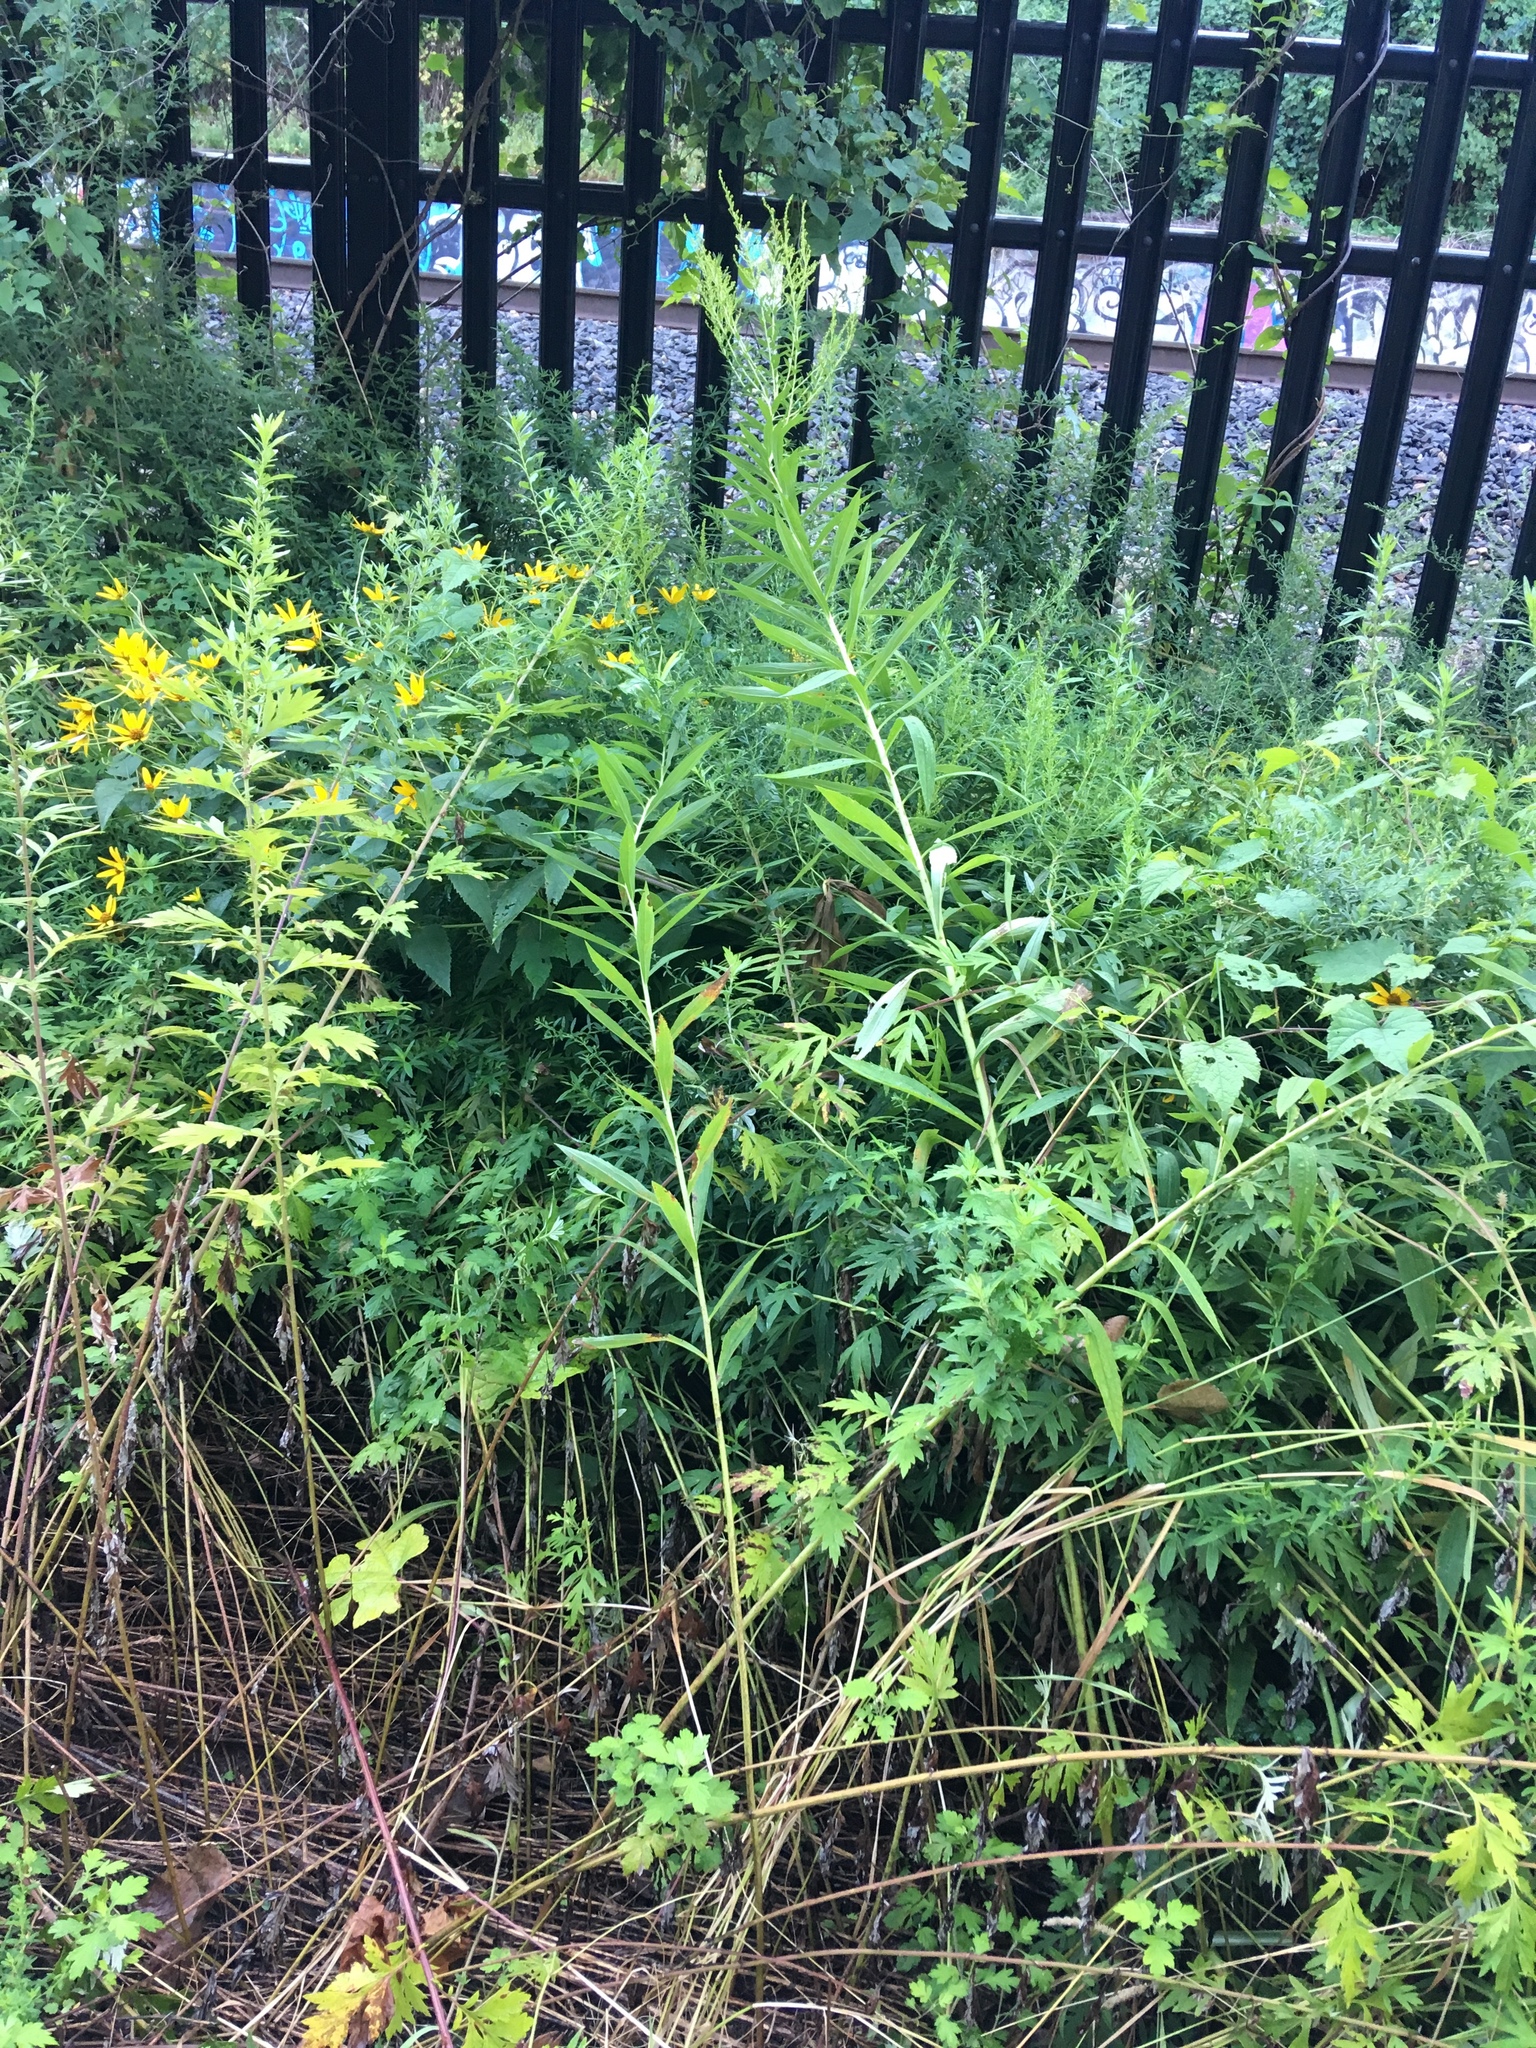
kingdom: Plantae
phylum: Tracheophyta
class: Magnoliopsida
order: Asterales
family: Asteraceae
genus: Solidago
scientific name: Solidago altissima
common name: Late goldenrod
